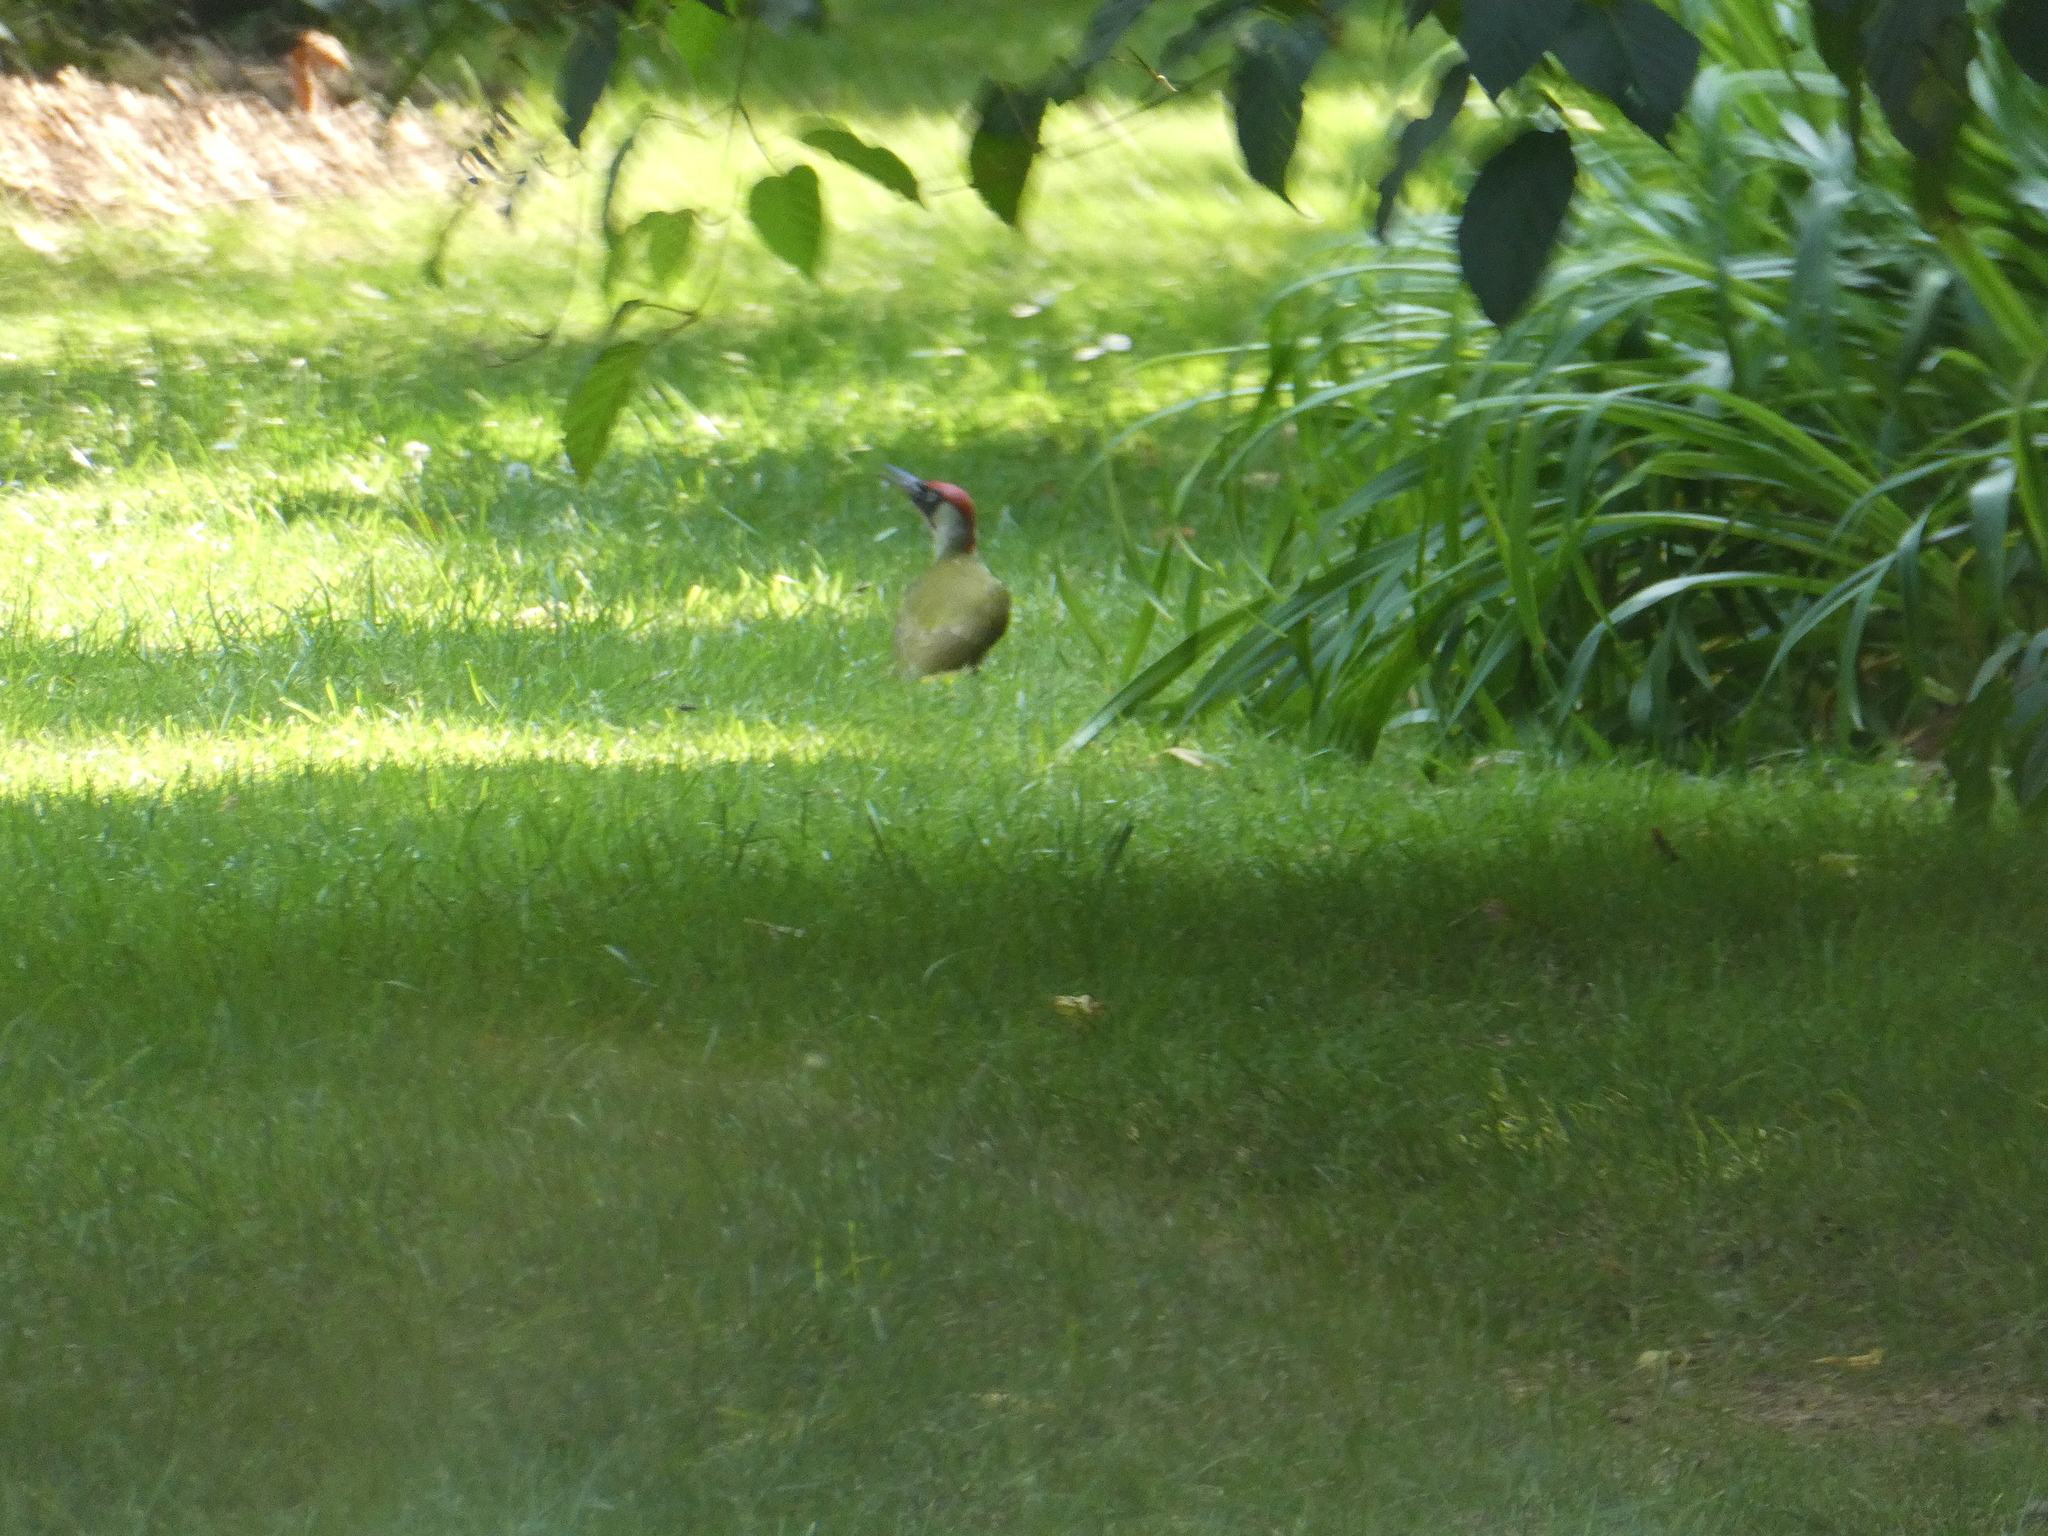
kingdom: Animalia
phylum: Chordata
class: Aves
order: Piciformes
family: Picidae
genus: Picus
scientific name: Picus viridis
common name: European green woodpecker
